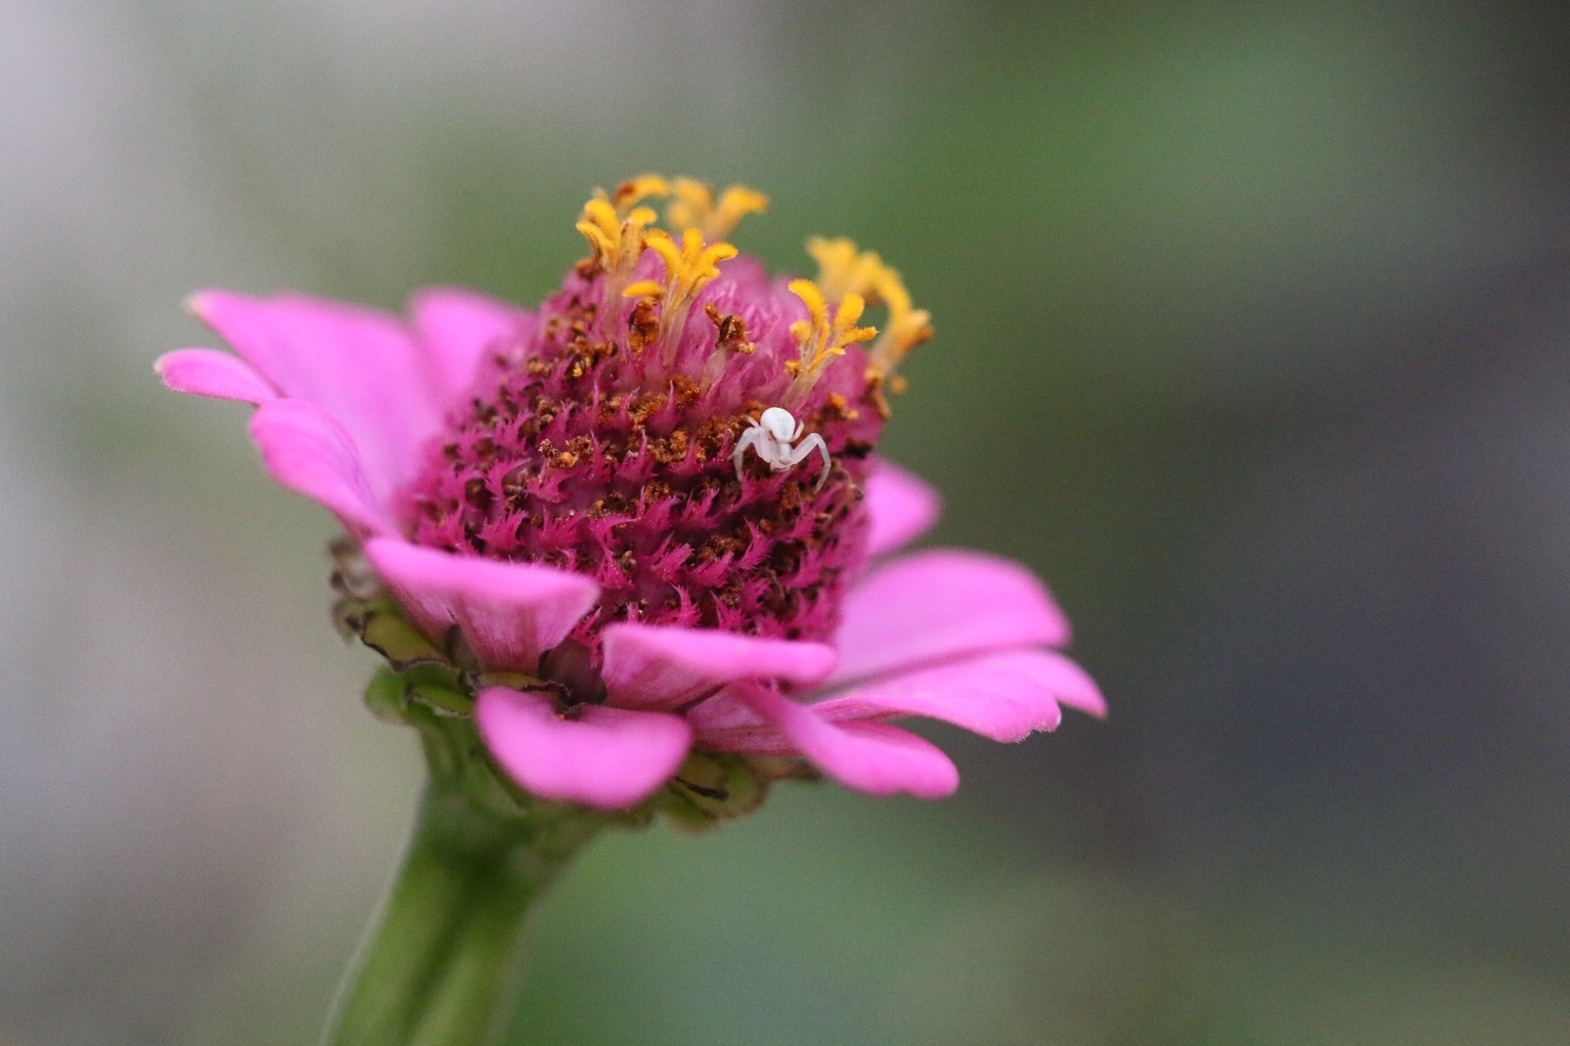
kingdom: Animalia
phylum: Arthropoda
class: Arachnida
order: Araneae
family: Thomisidae
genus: Misumena
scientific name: Misumena vatia
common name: Goldenrod crab spider
